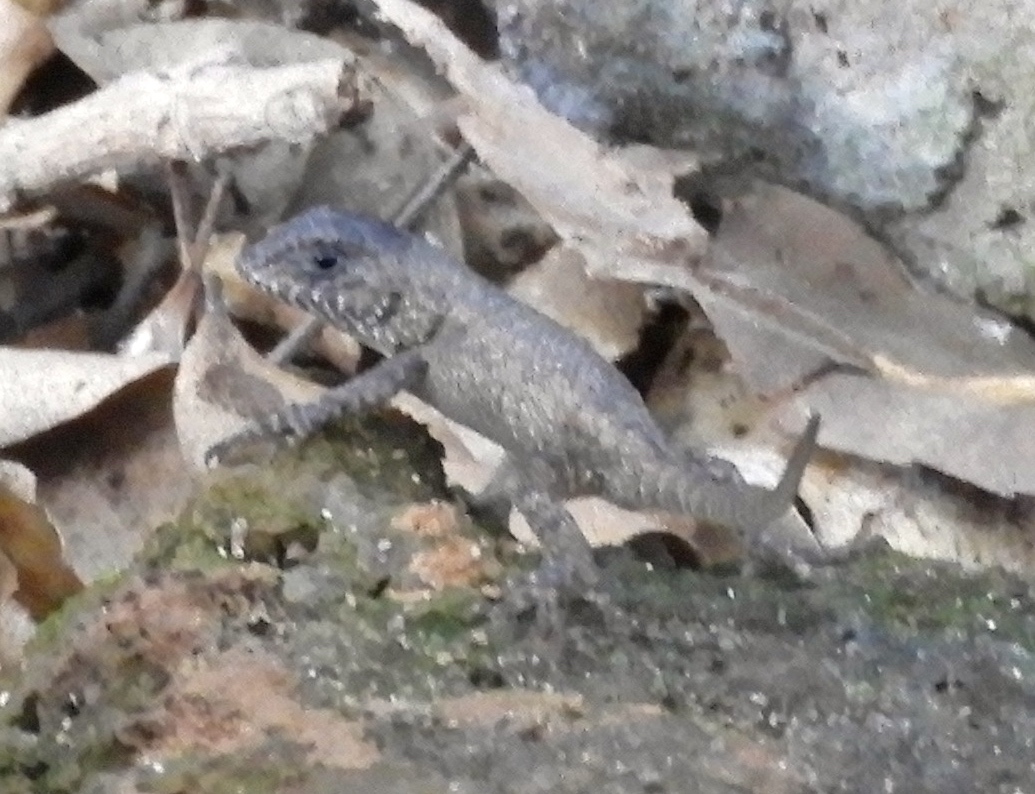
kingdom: Animalia
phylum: Chordata
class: Squamata
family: Phrynosomatidae
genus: Sceloporus
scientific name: Sceloporus
